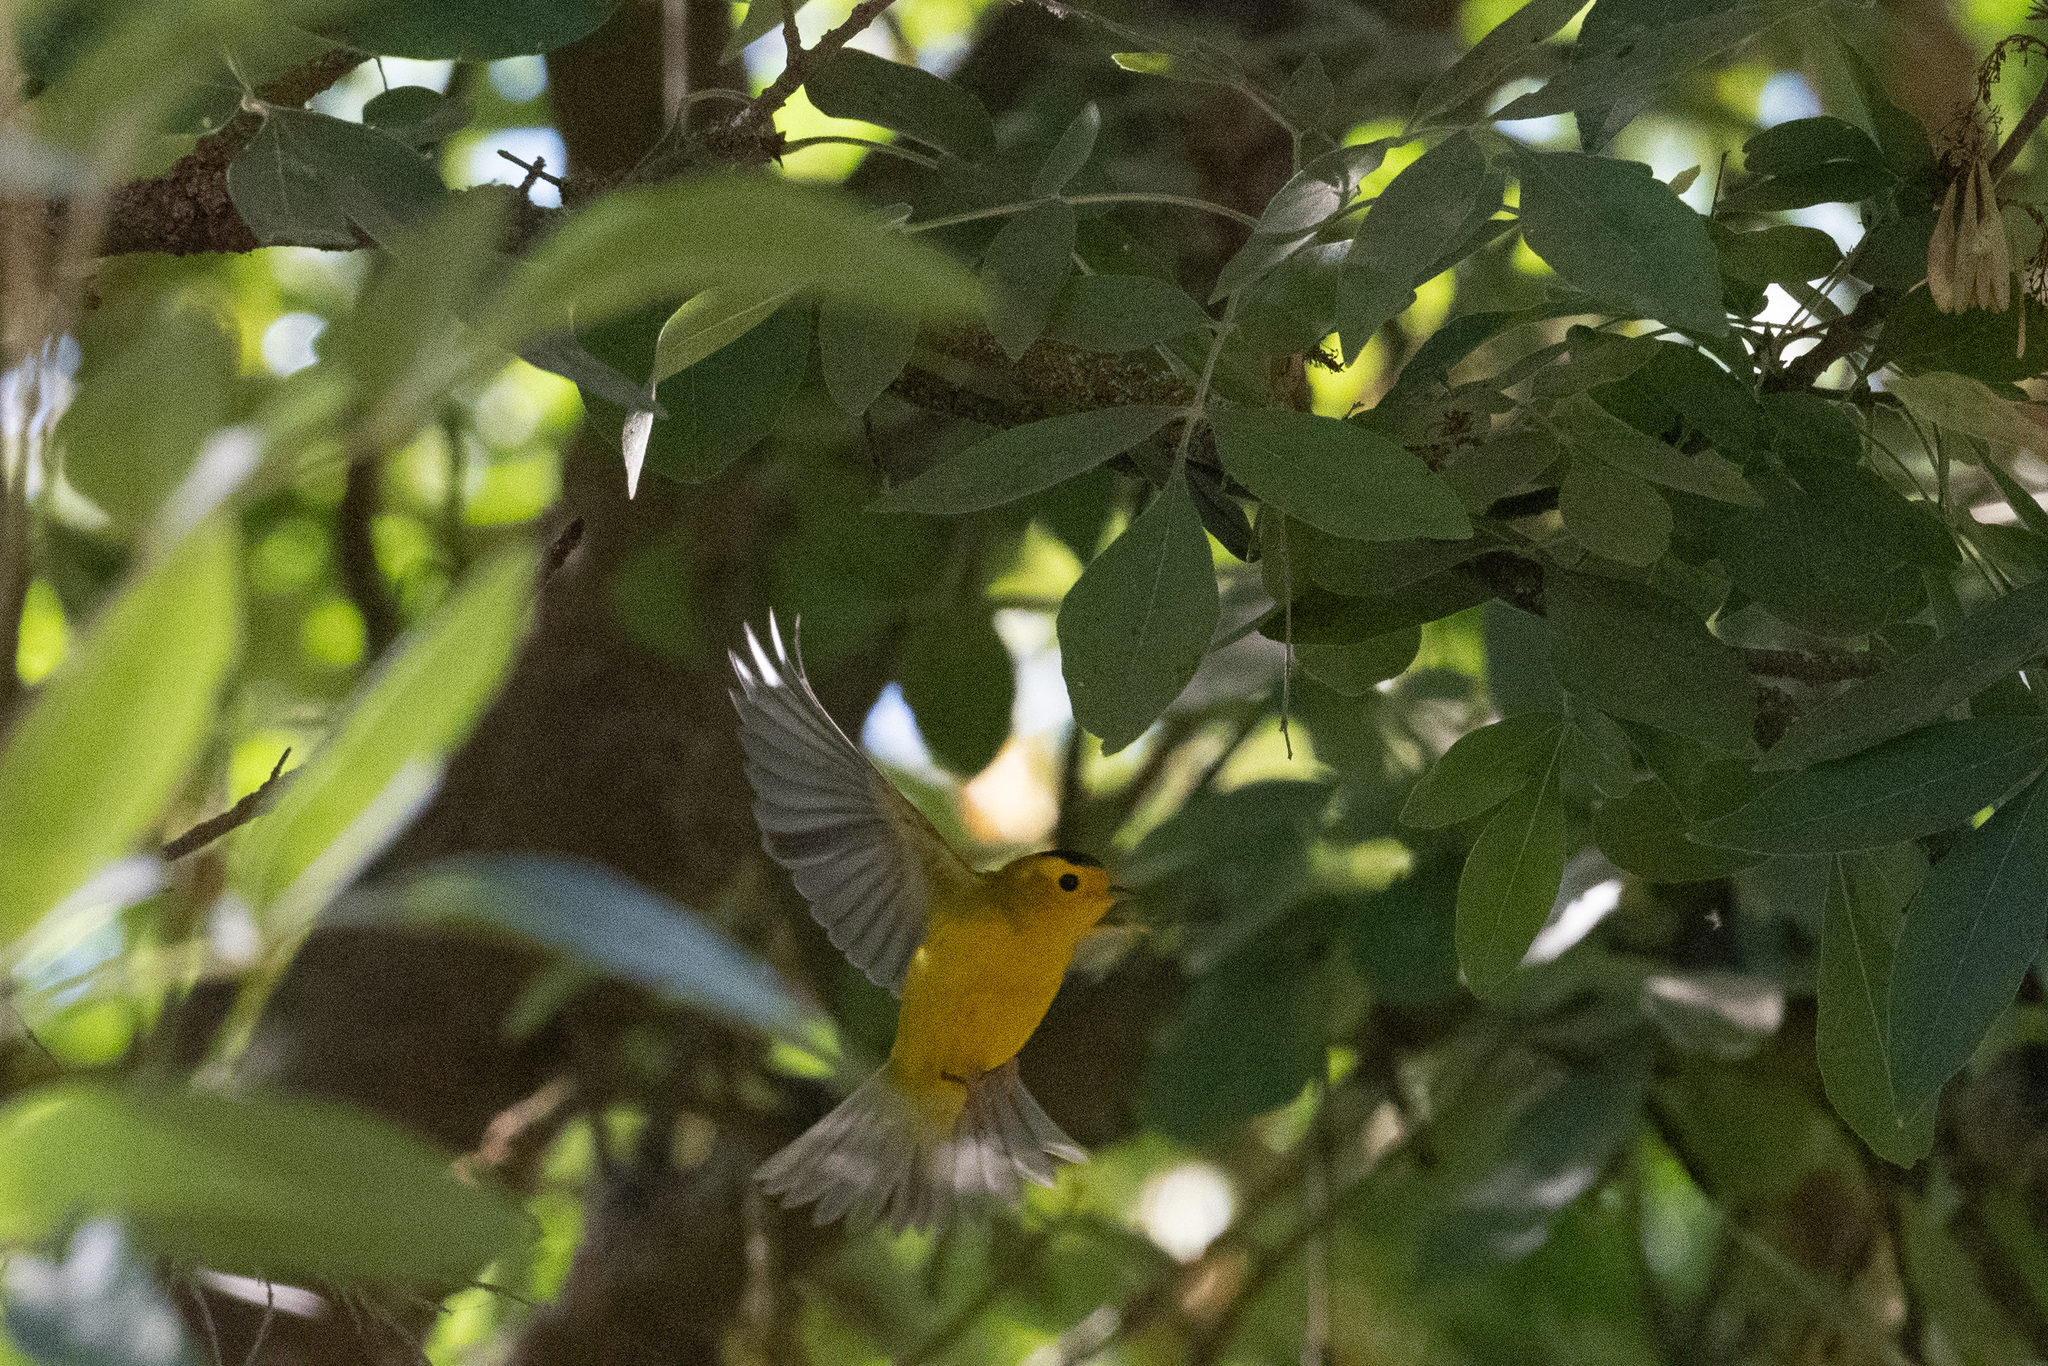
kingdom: Animalia
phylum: Chordata
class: Aves
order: Passeriformes
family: Parulidae
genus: Cardellina
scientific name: Cardellina pusilla
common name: Wilson's warbler
